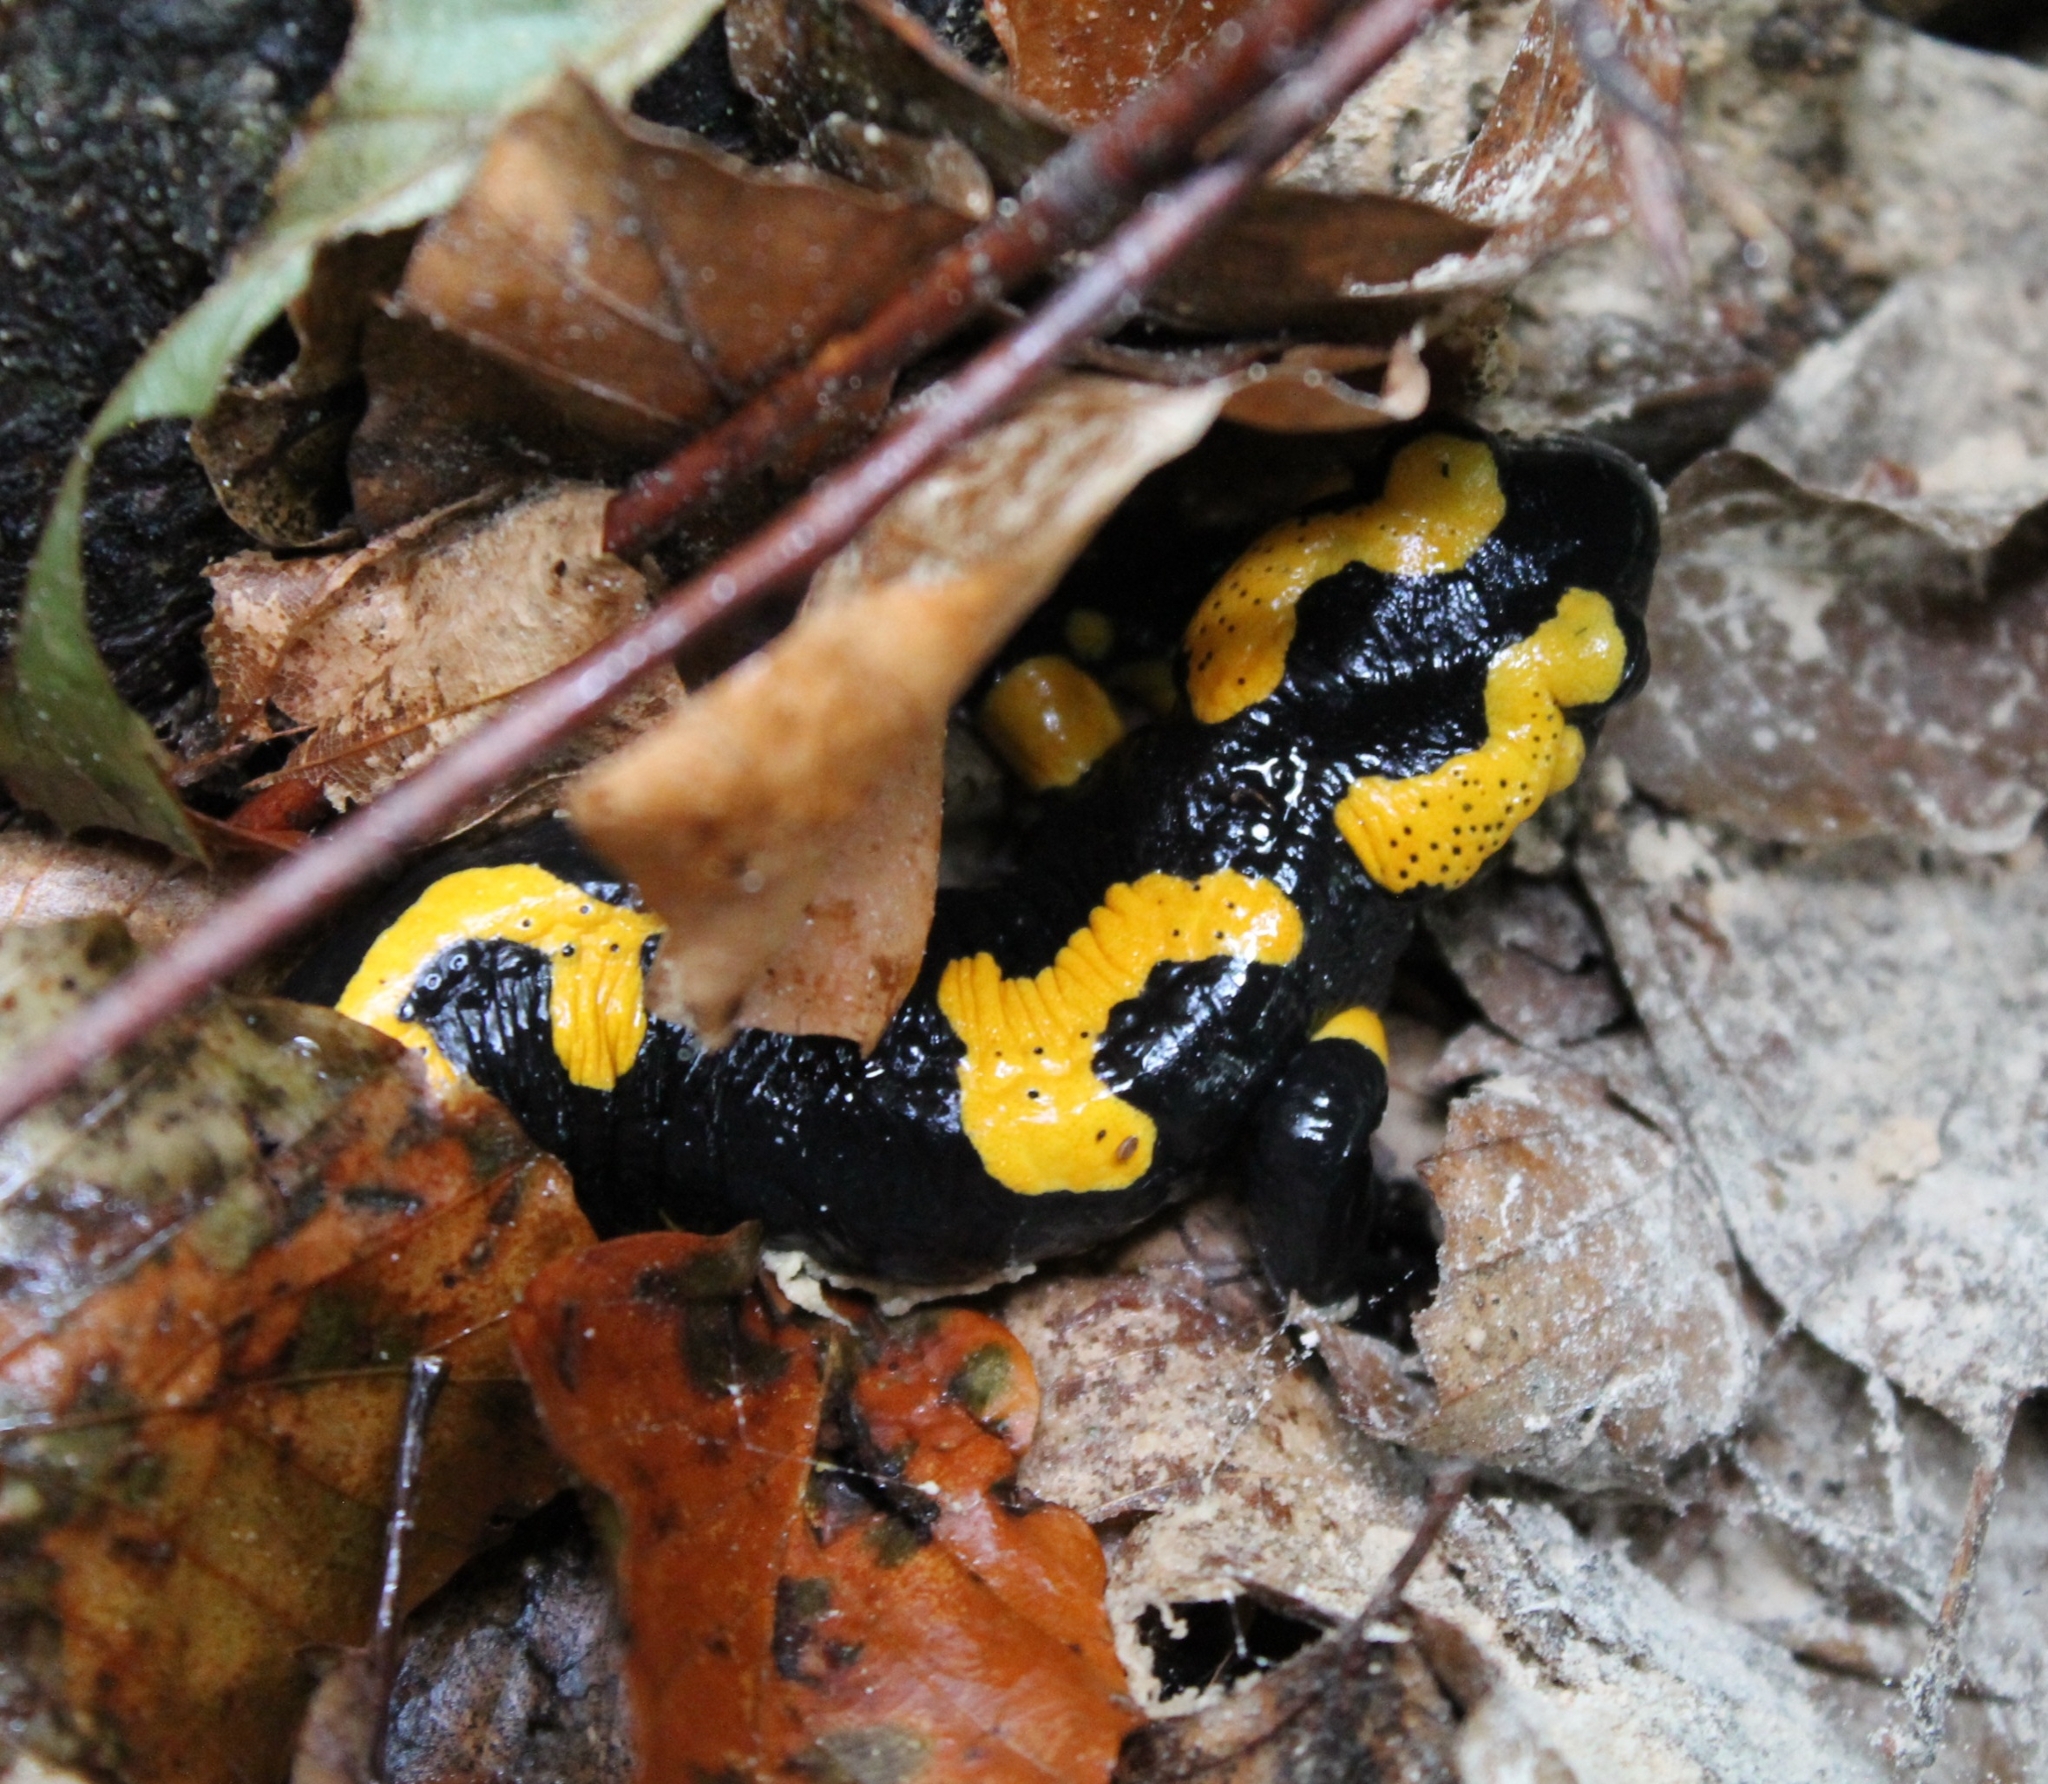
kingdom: Animalia
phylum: Chordata
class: Amphibia
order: Caudata
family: Salamandridae
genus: Salamandra
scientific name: Salamandra salamandra
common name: Fire salamander
